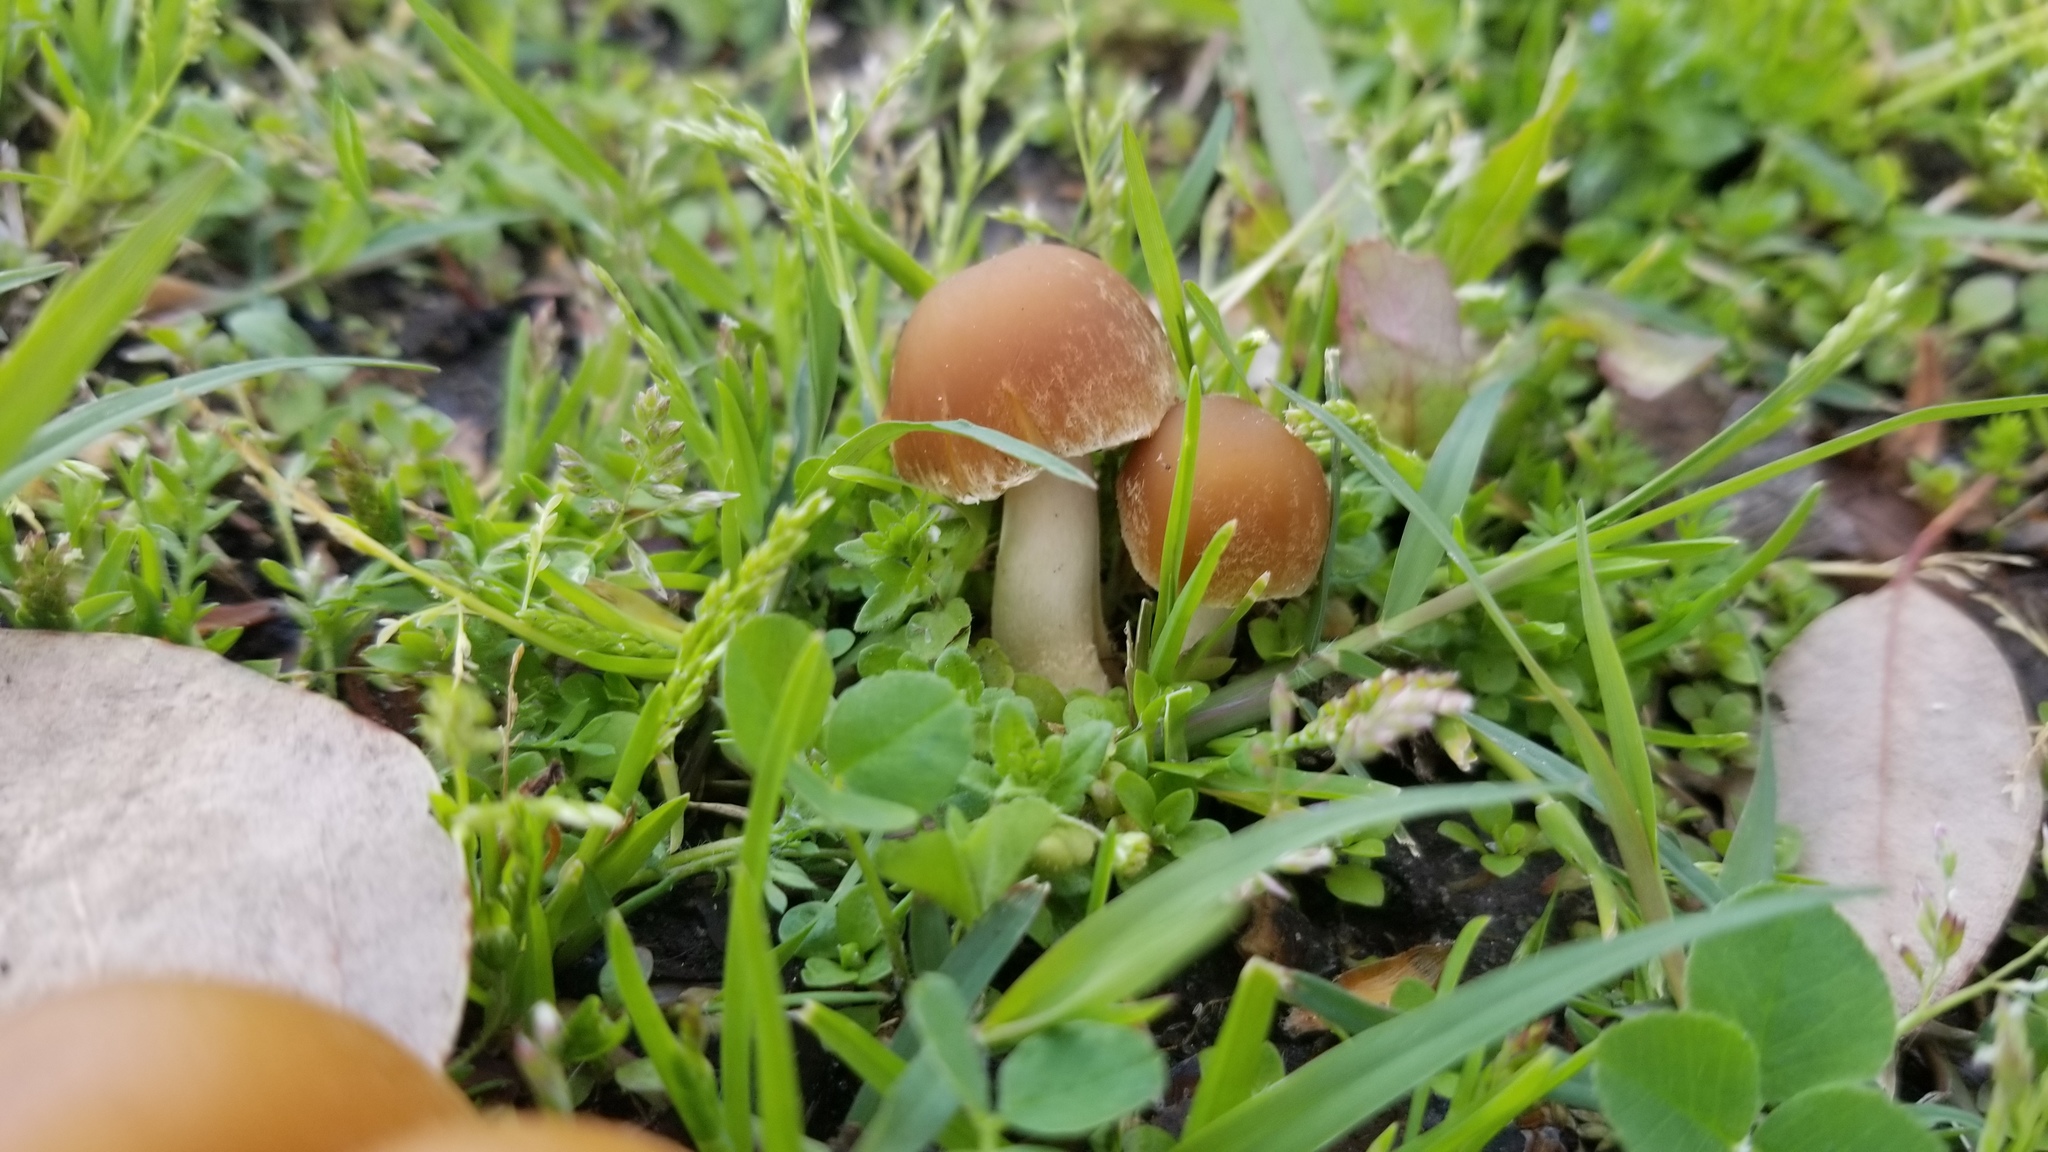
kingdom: Fungi
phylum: Basidiomycota
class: Agaricomycetes
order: Agaricales
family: Psathyrellaceae
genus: Candolleomyces
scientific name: Candolleomyces candolleanus
